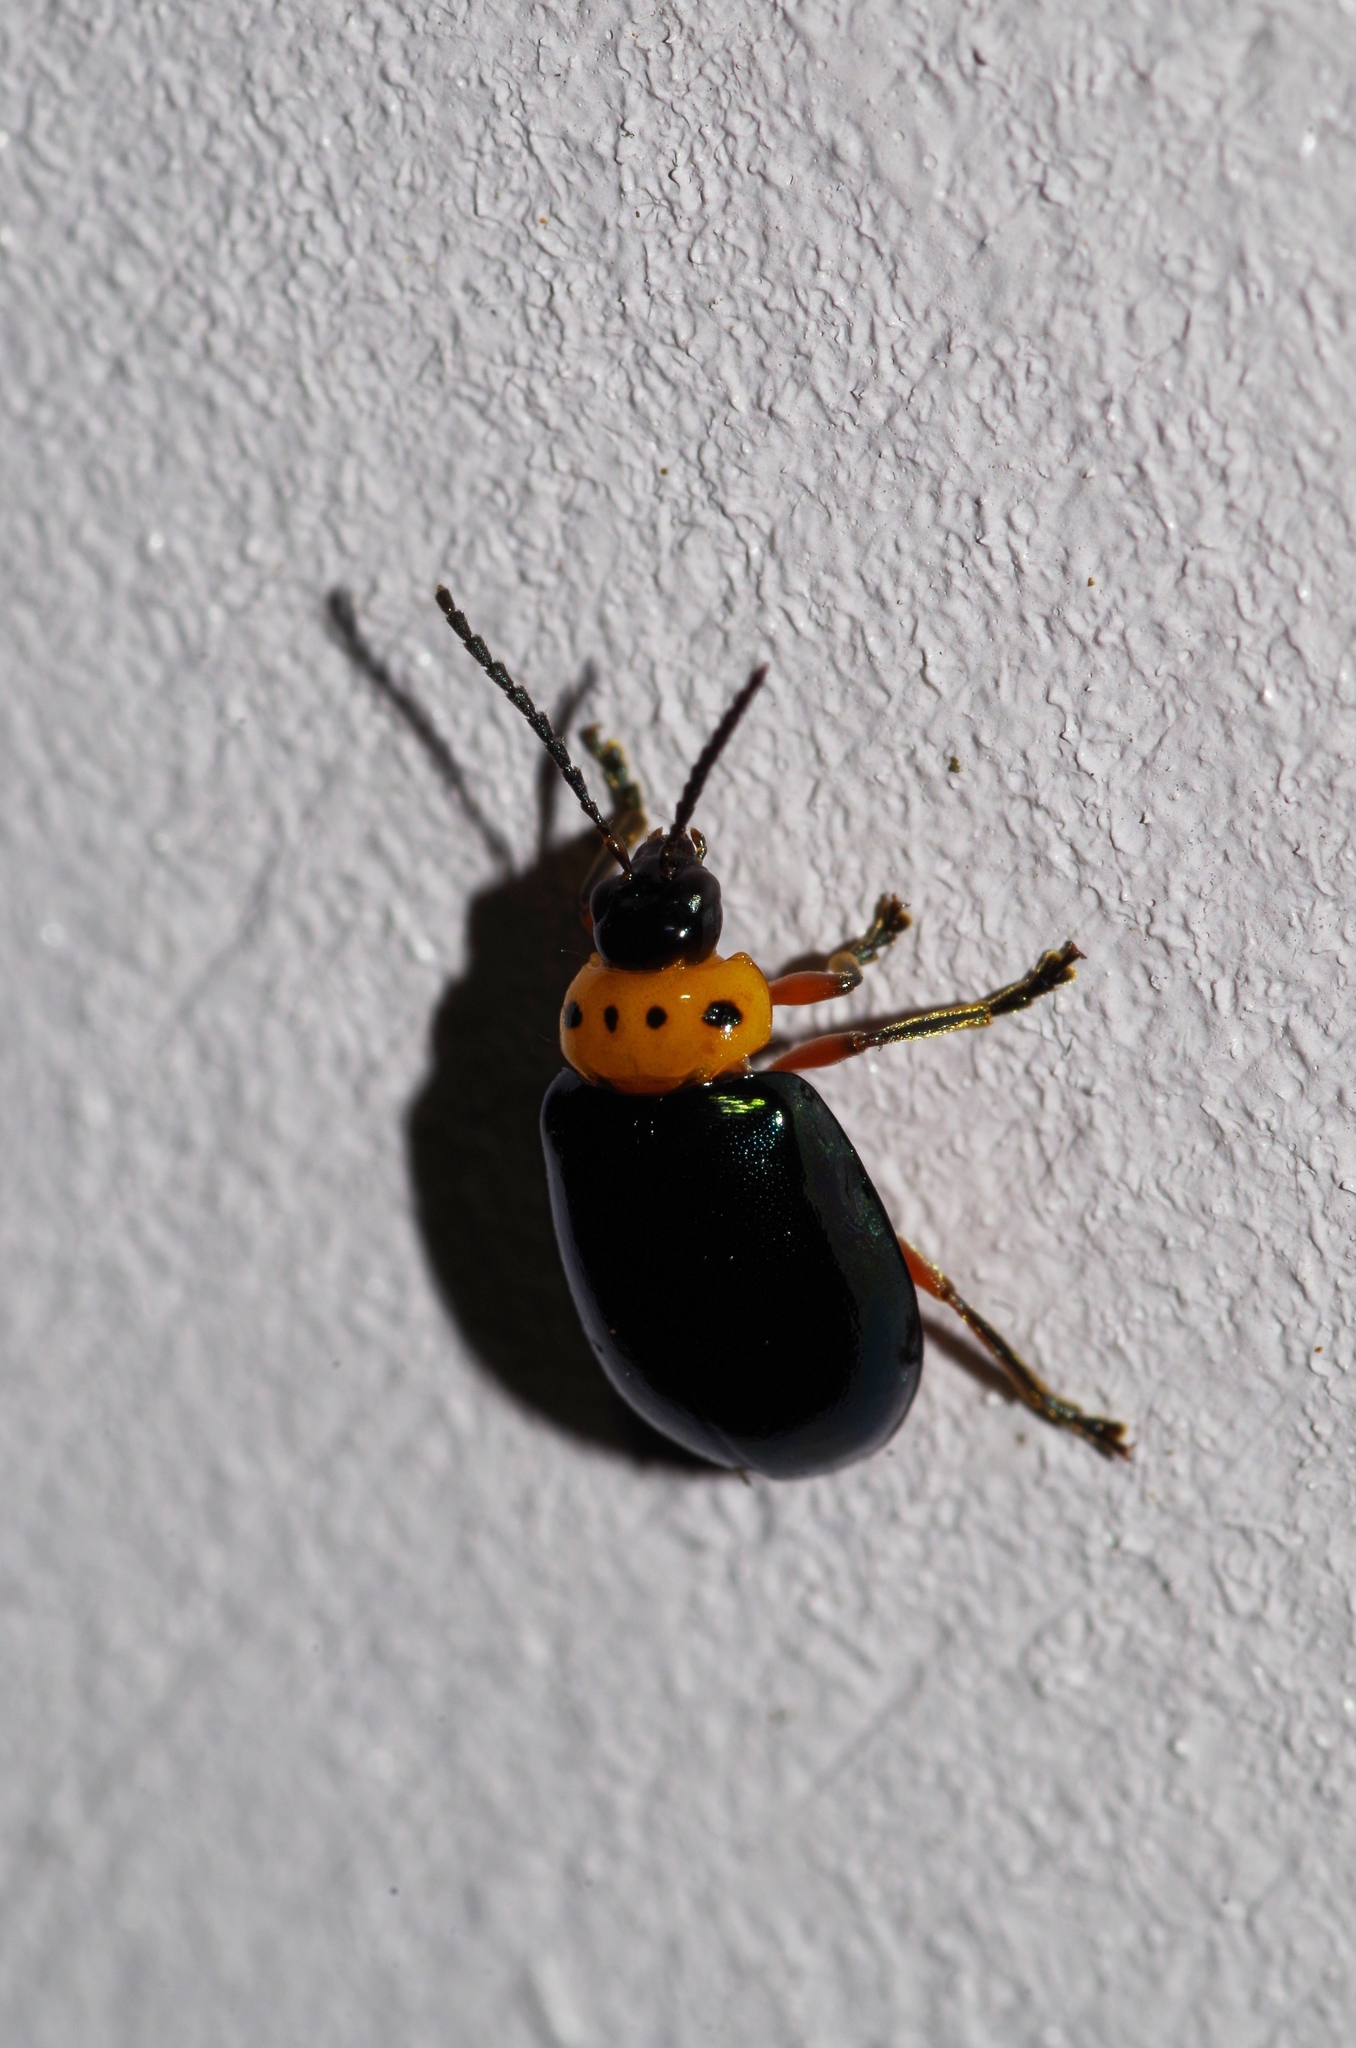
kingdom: Animalia
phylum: Arthropoda
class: Insecta
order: Coleoptera
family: Chrysomelidae
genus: Morphosphaera
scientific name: Morphosphaera caerulea
